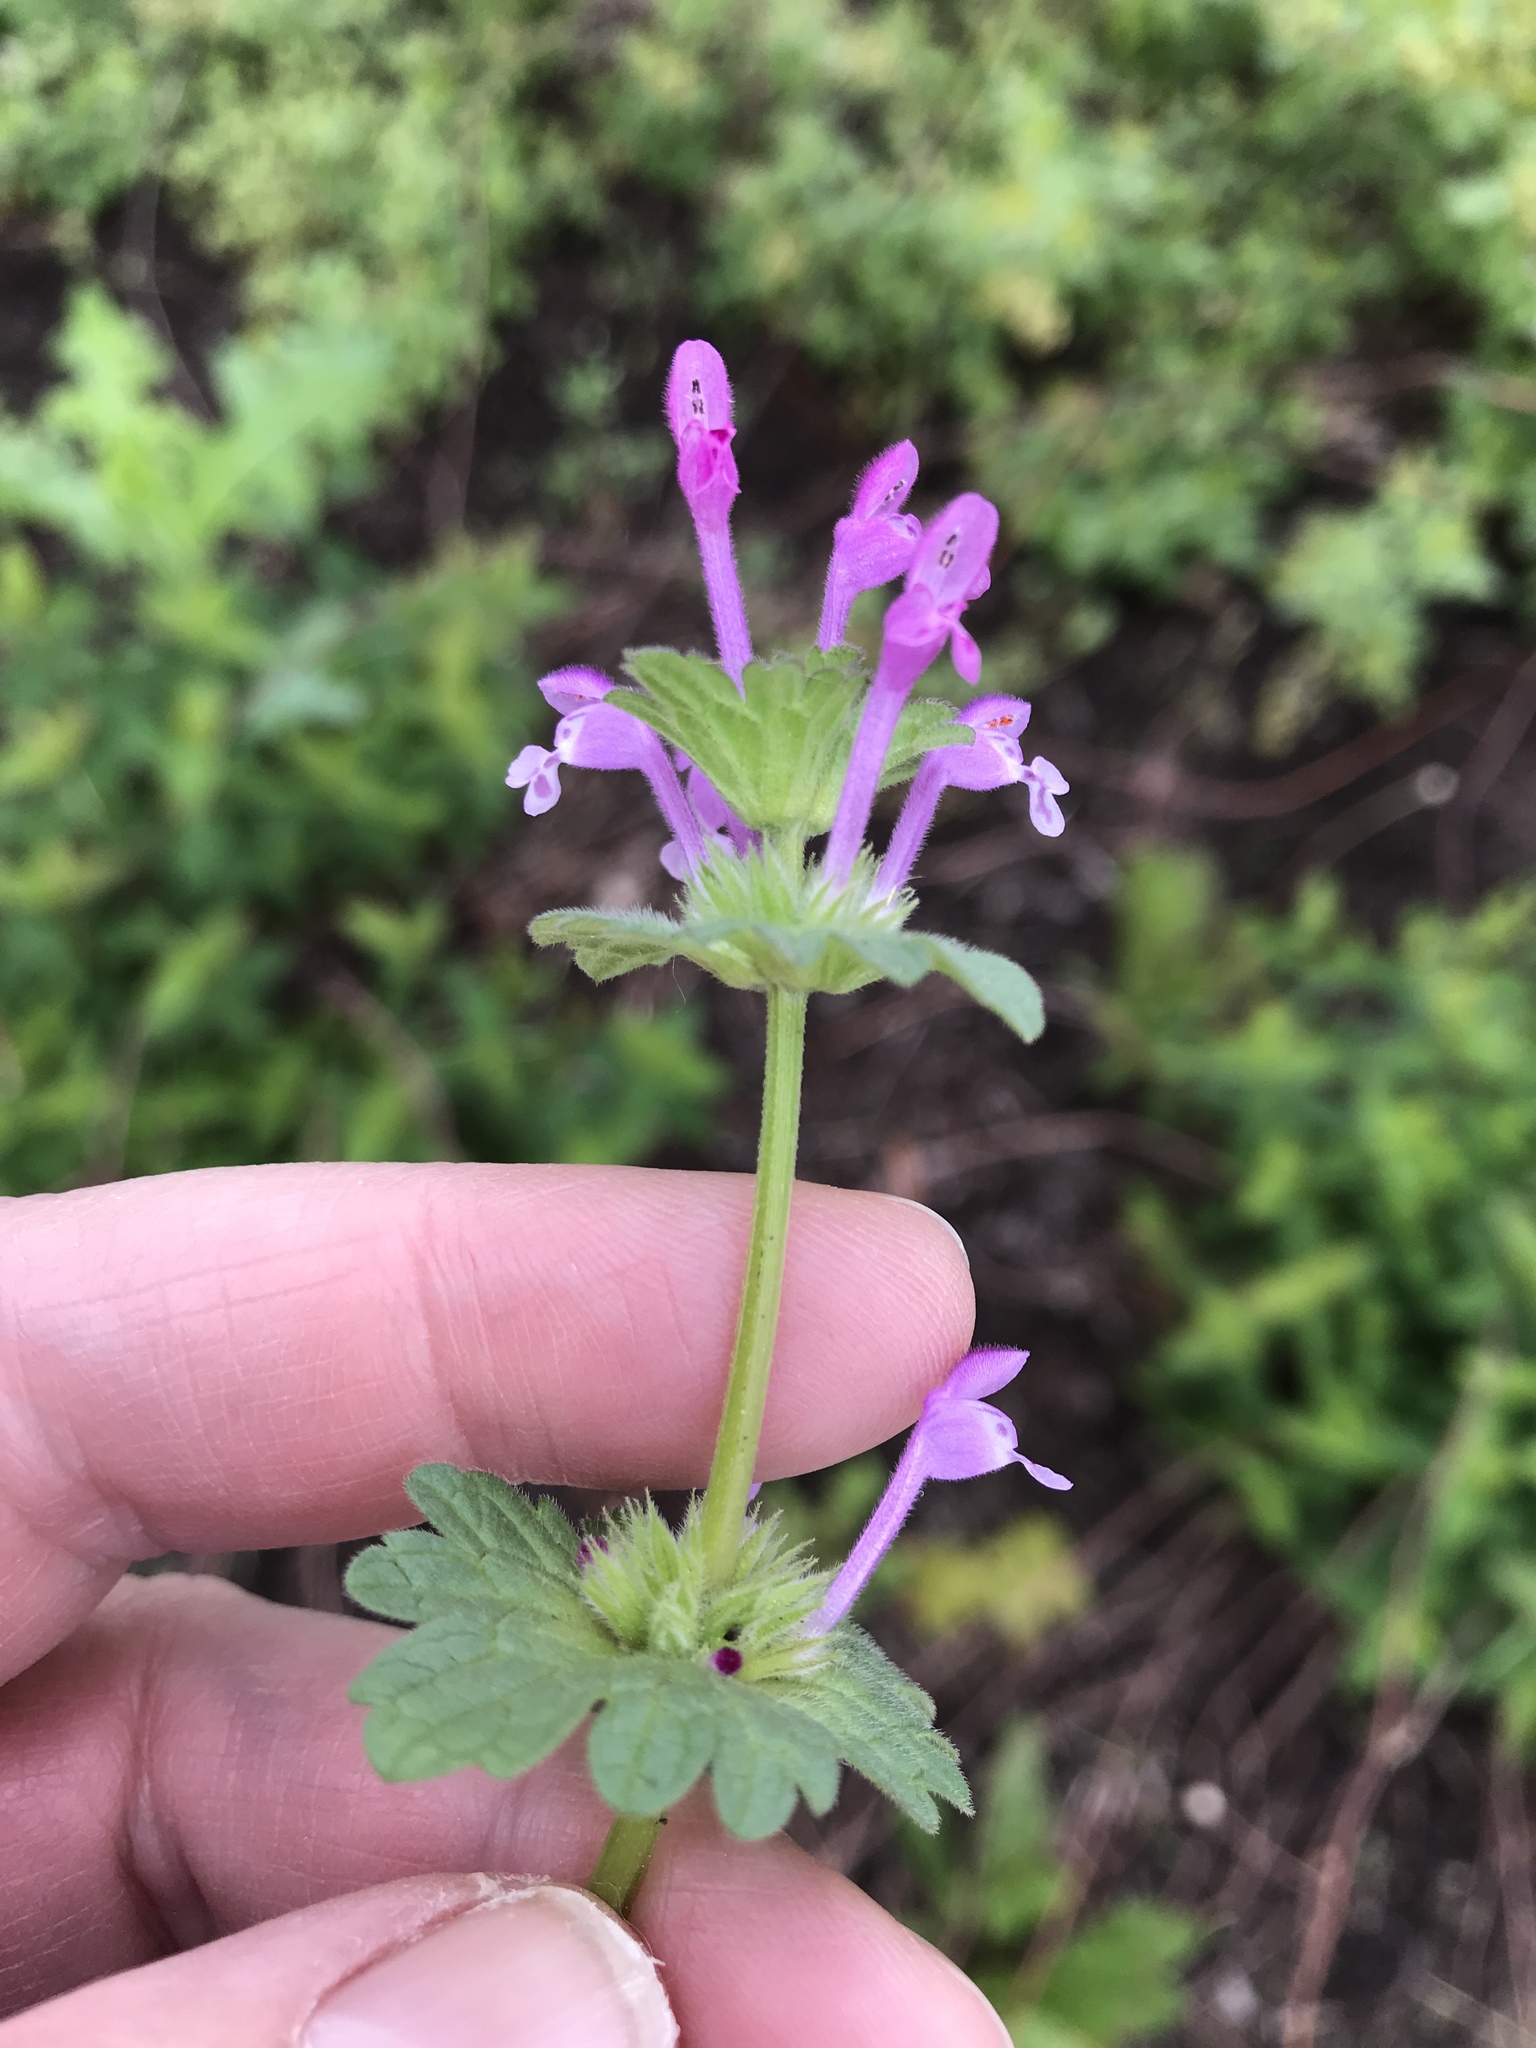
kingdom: Plantae
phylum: Tracheophyta
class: Magnoliopsida
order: Lamiales
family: Lamiaceae
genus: Lamium
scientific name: Lamium amplexicaule
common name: Henbit dead-nettle
